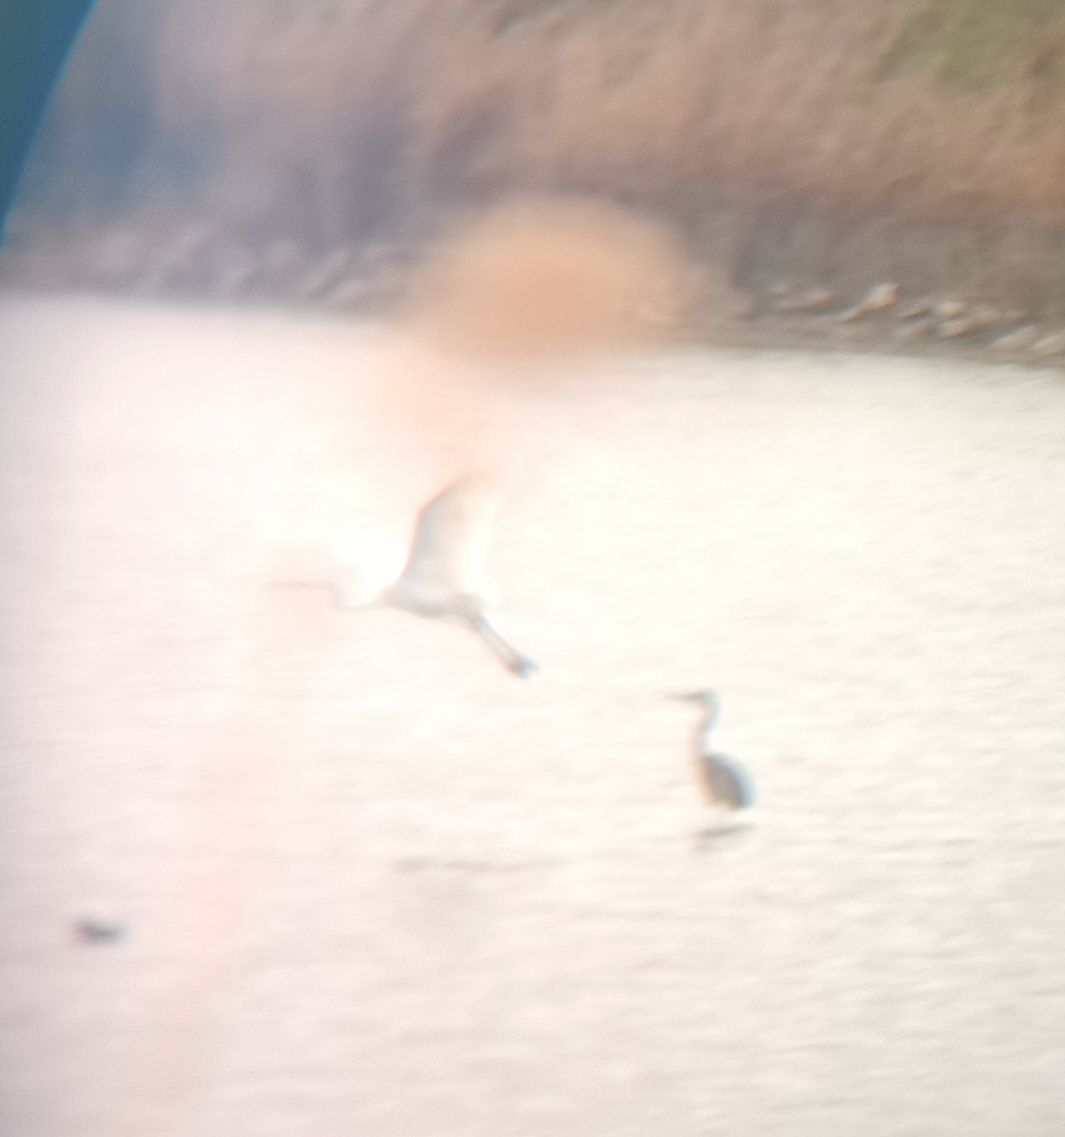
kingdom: Animalia
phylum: Chordata
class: Aves
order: Pelecaniformes
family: Ardeidae
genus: Ardea
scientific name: Ardea alba
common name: Great egret
